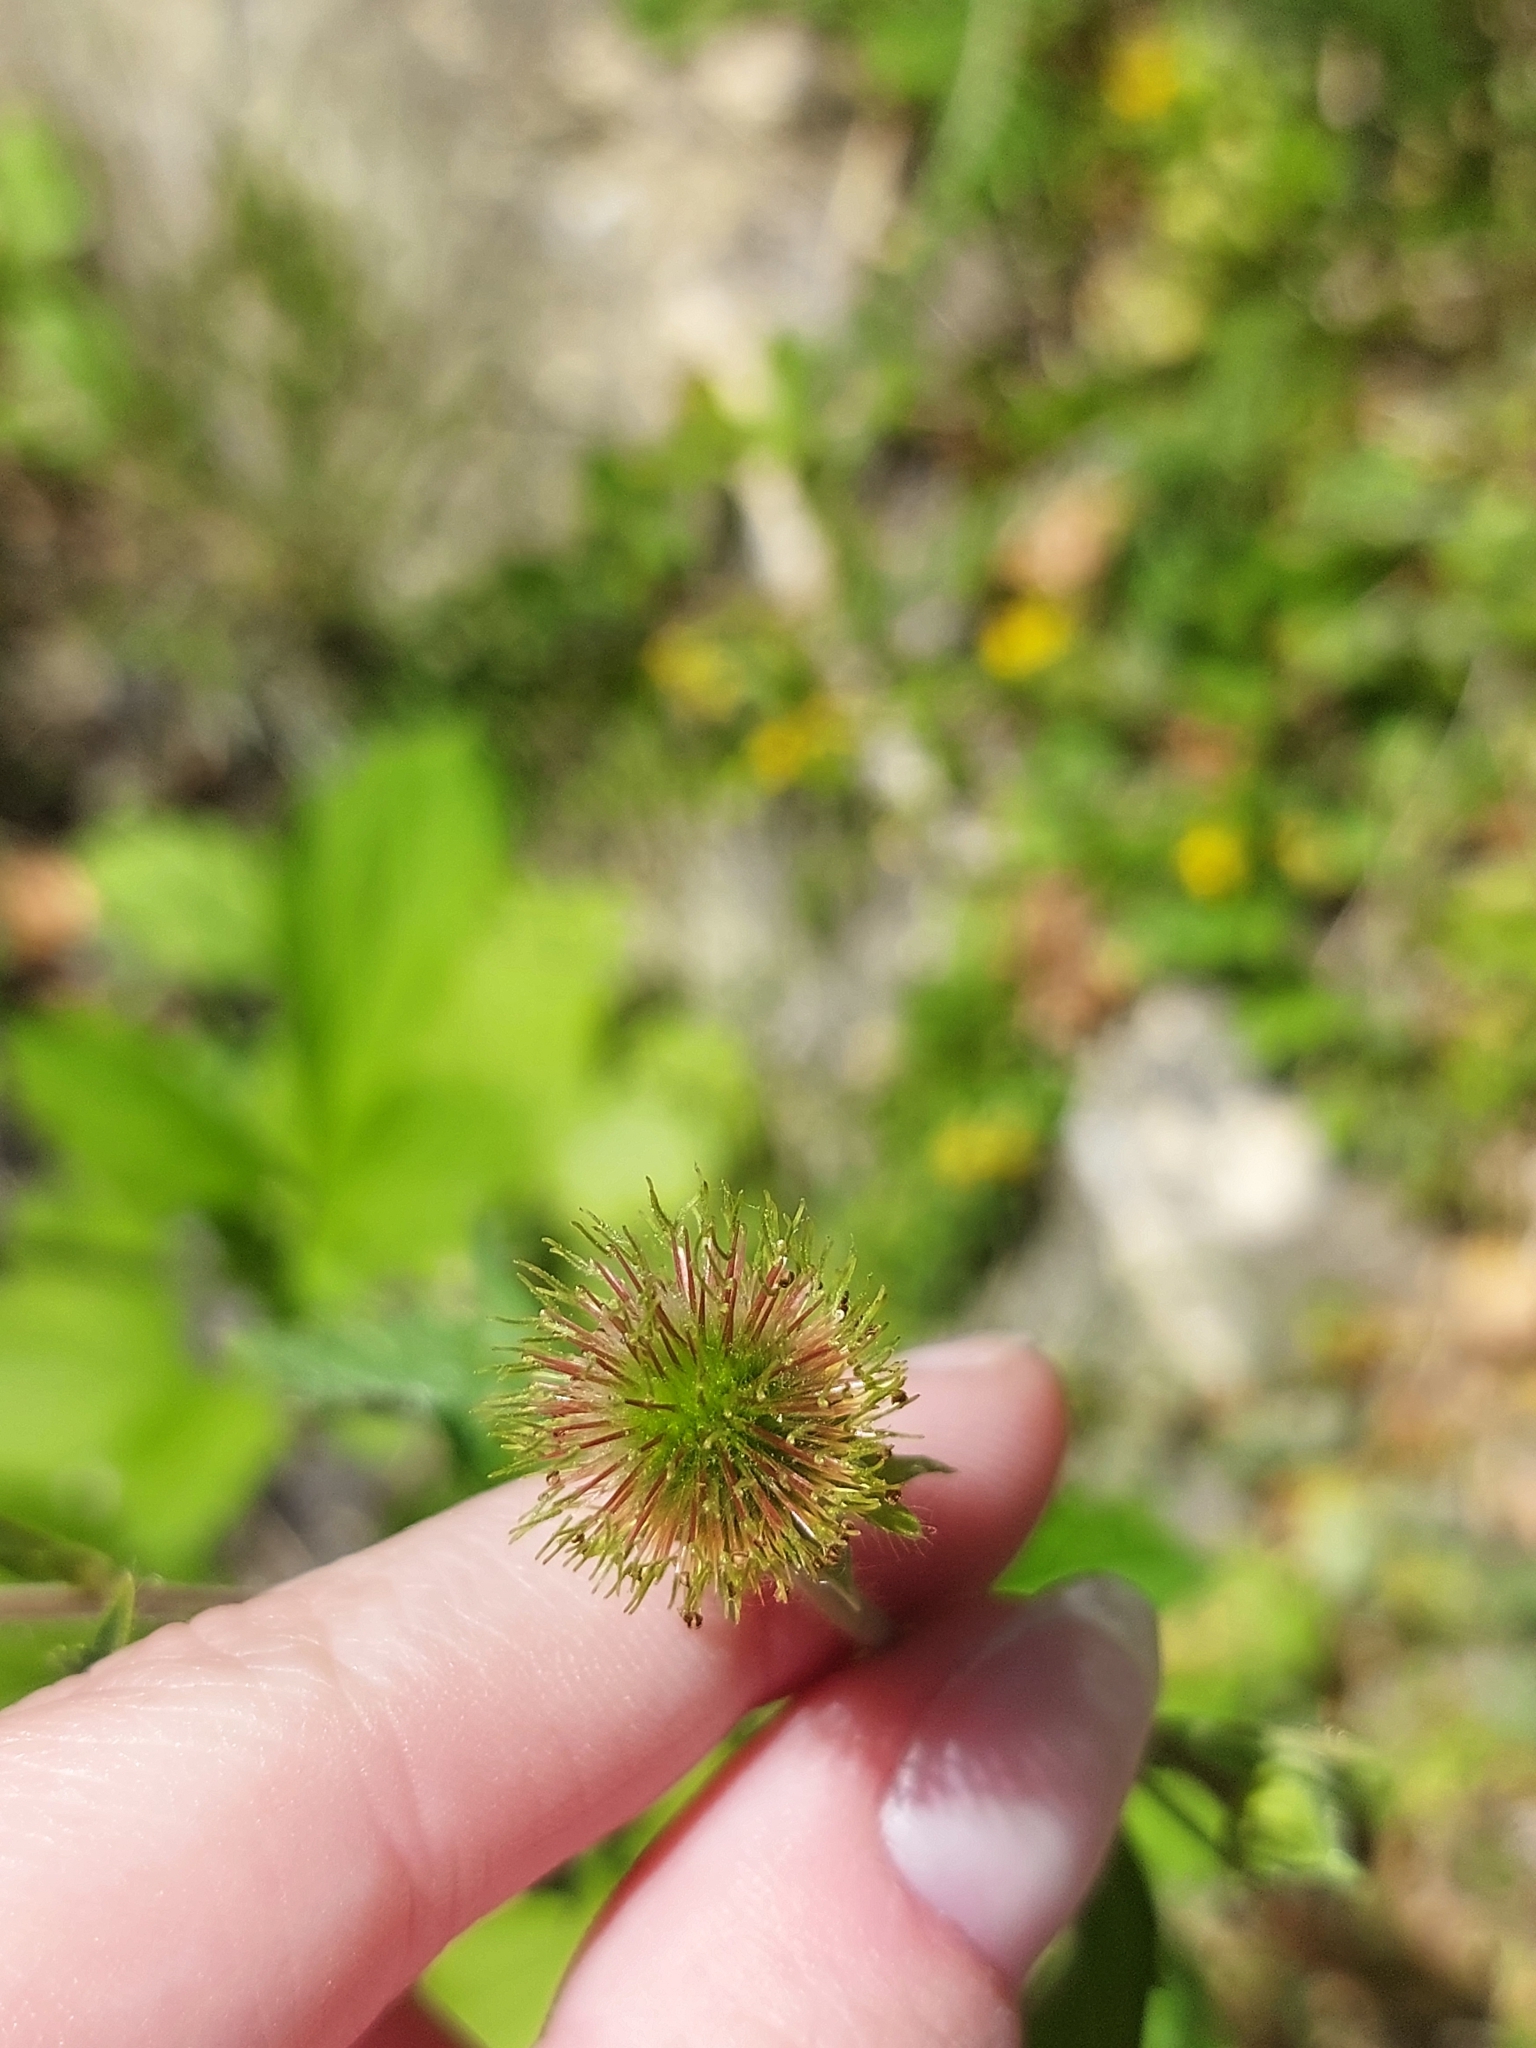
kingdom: Plantae
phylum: Tracheophyta
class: Magnoliopsida
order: Rosales
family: Rosaceae
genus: Geum
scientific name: Geum aleppicum
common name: Yellow avens
